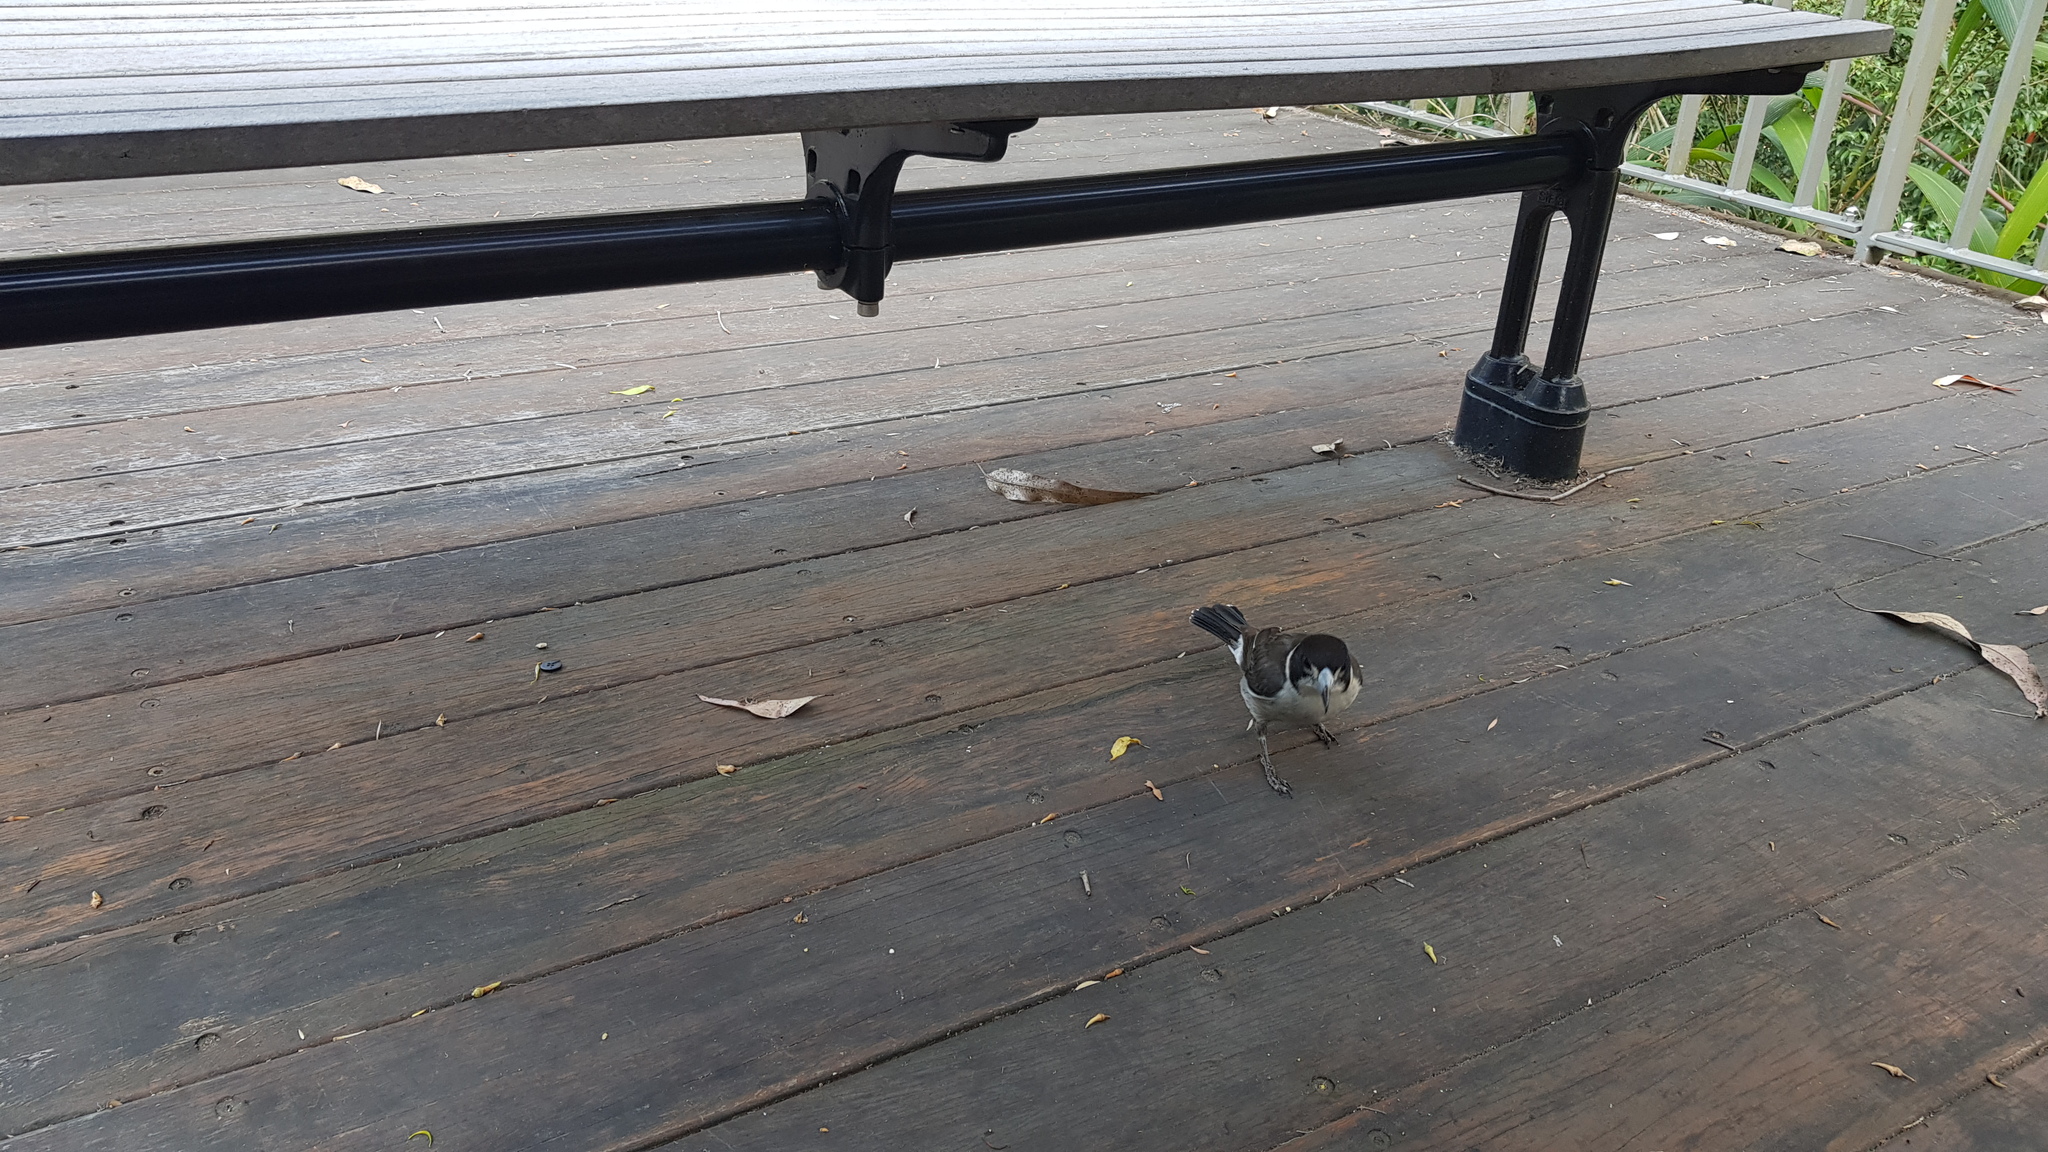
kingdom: Animalia
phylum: Chordata
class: Aves
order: Passeriformes
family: Cracticidae
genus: Cracticus
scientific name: Cracticus torquatus
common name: Grey butcherbird
